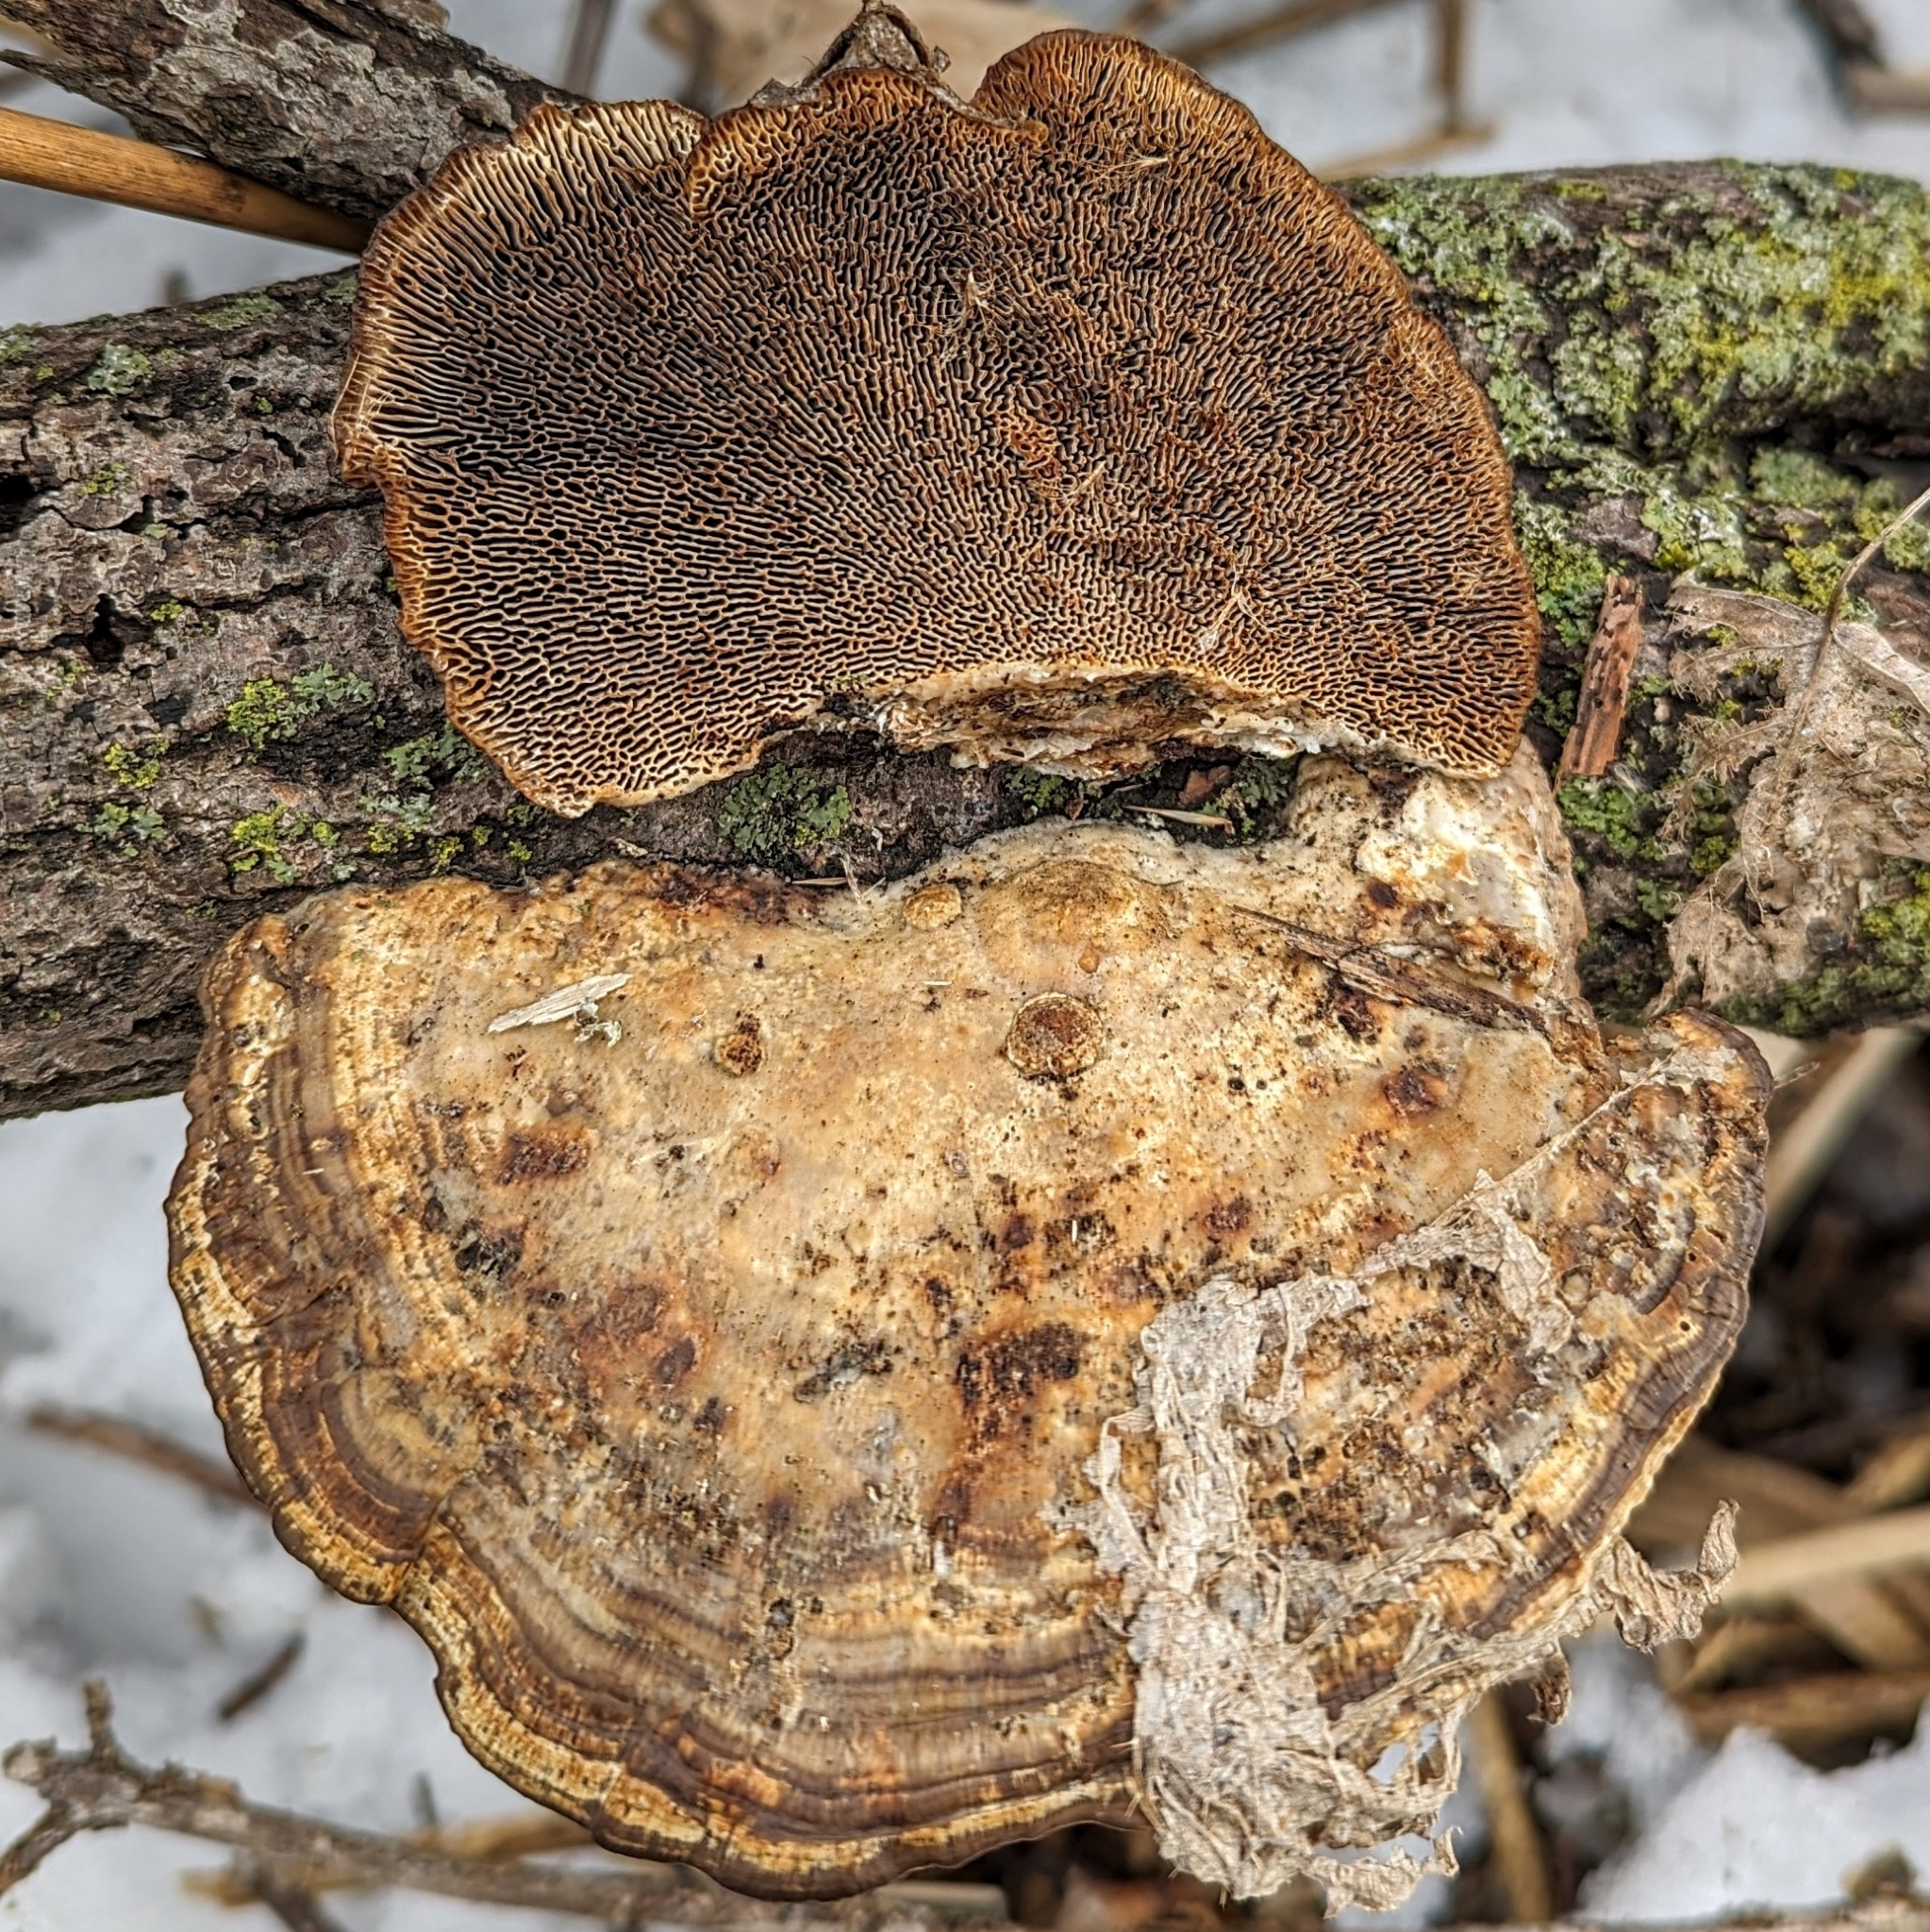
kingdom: Fungi
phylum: Basidiomycota
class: Agaricomycetes
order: Polyporales
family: Polyporaceae
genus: Daedaleopsis
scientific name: Daedaleopsis confragosa
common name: Blushing bracket
